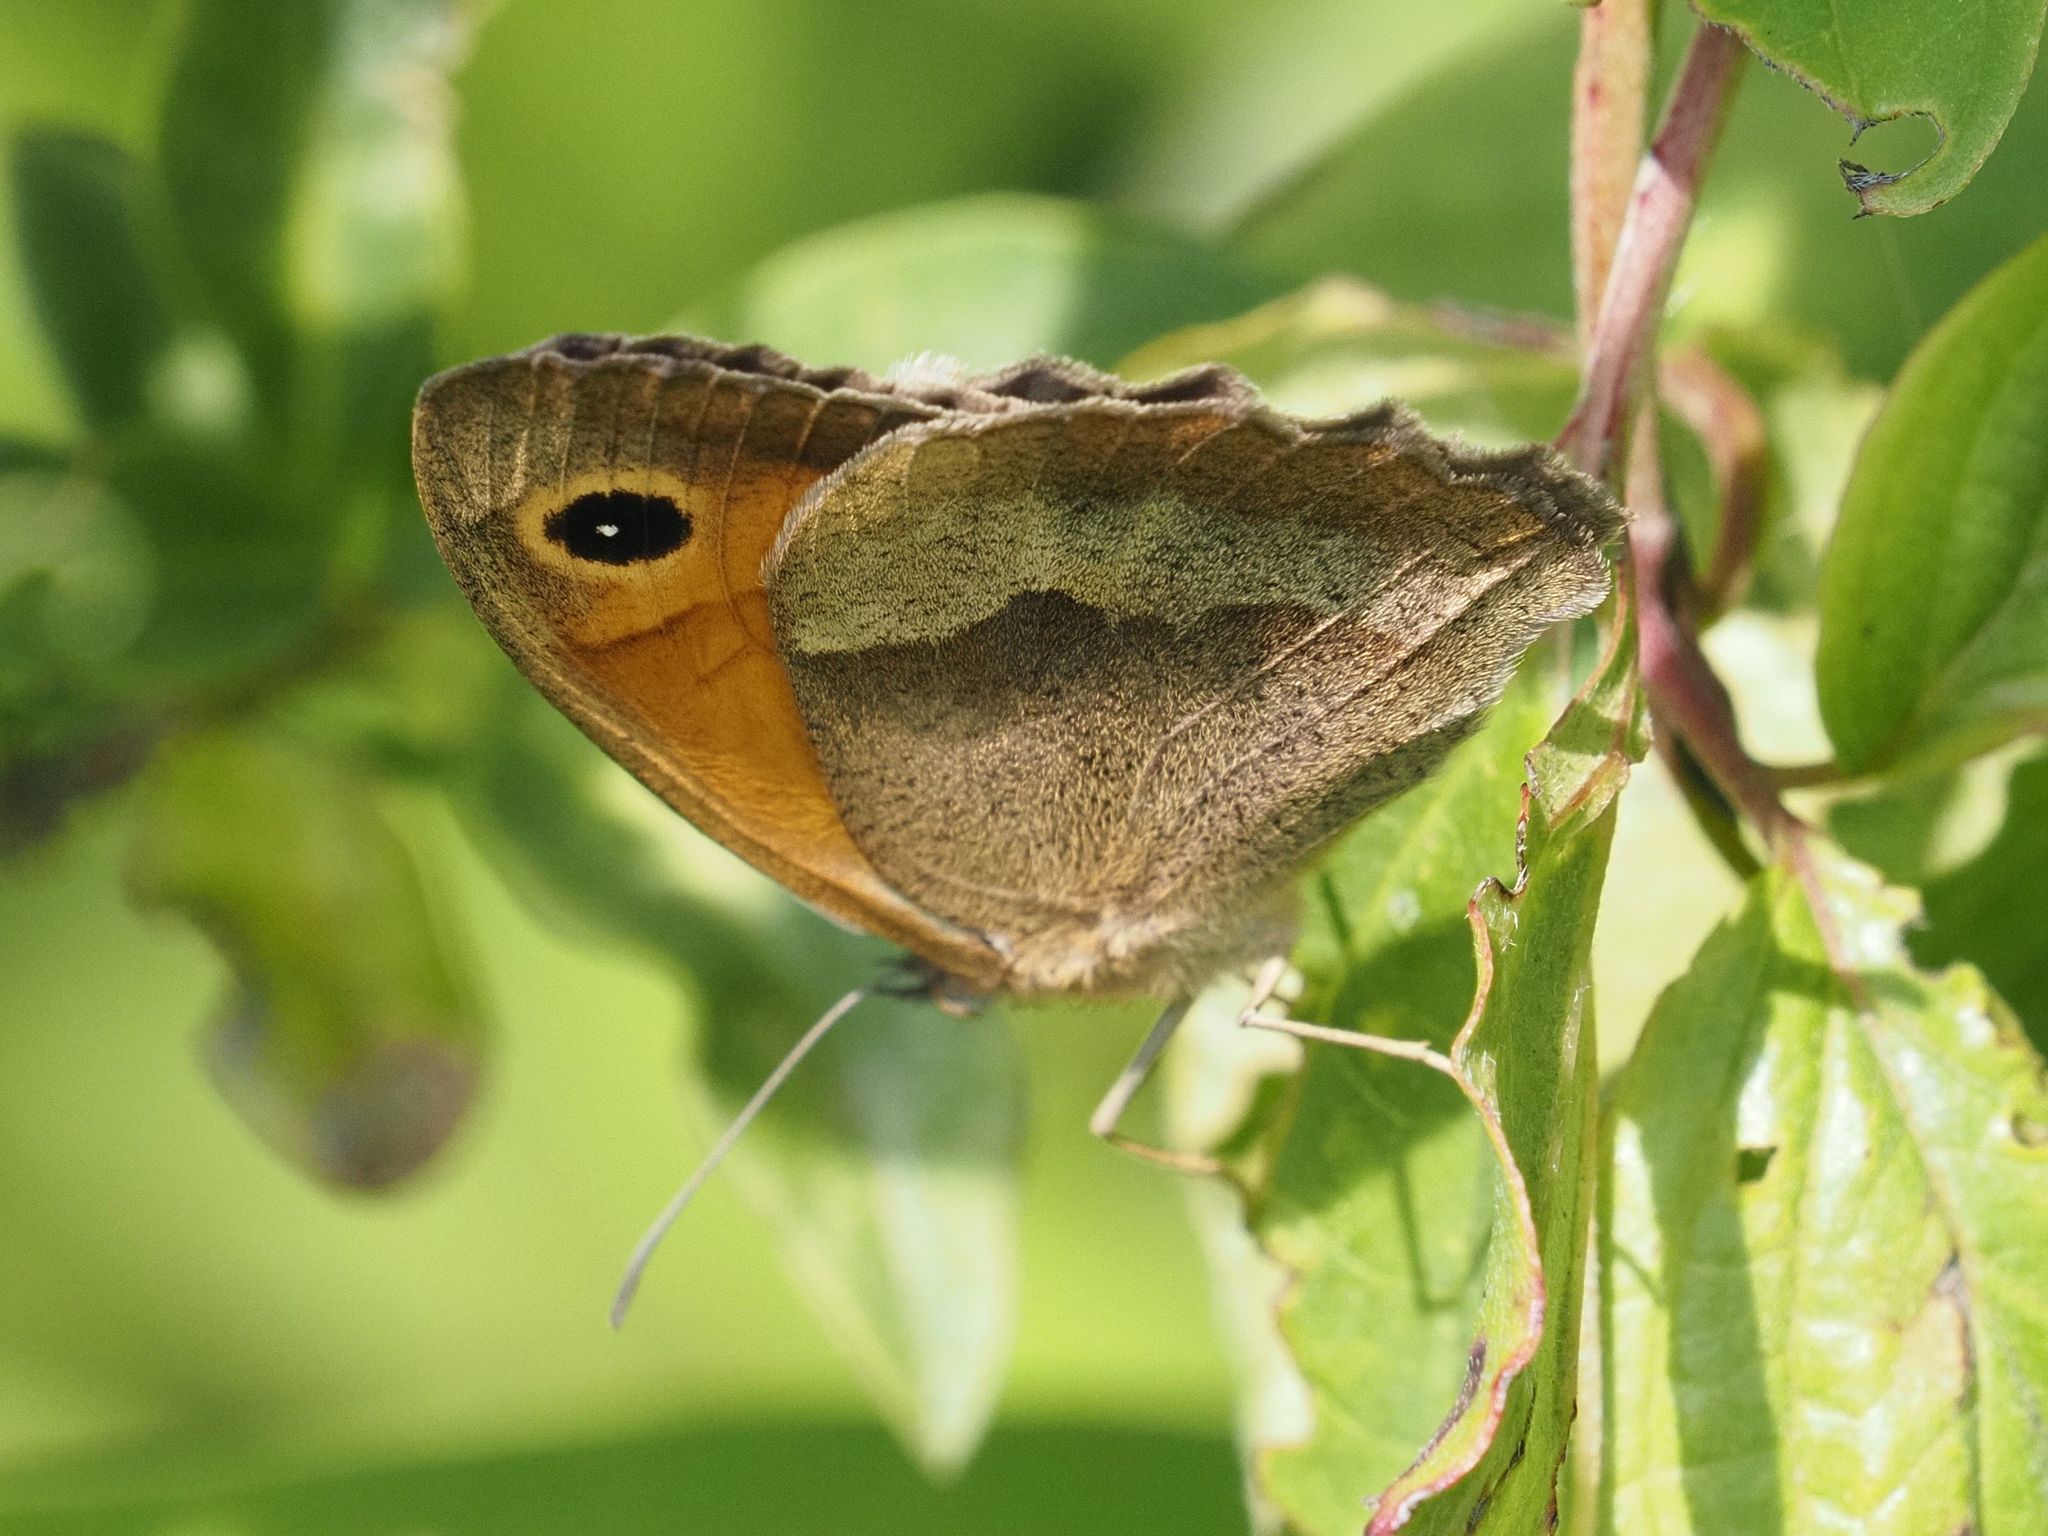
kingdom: Animalia
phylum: Arthropoda
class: Insecta
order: Lepidoptera
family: Nymphalidae
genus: Maniola
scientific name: Maniola jurtina
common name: Meadow brown
